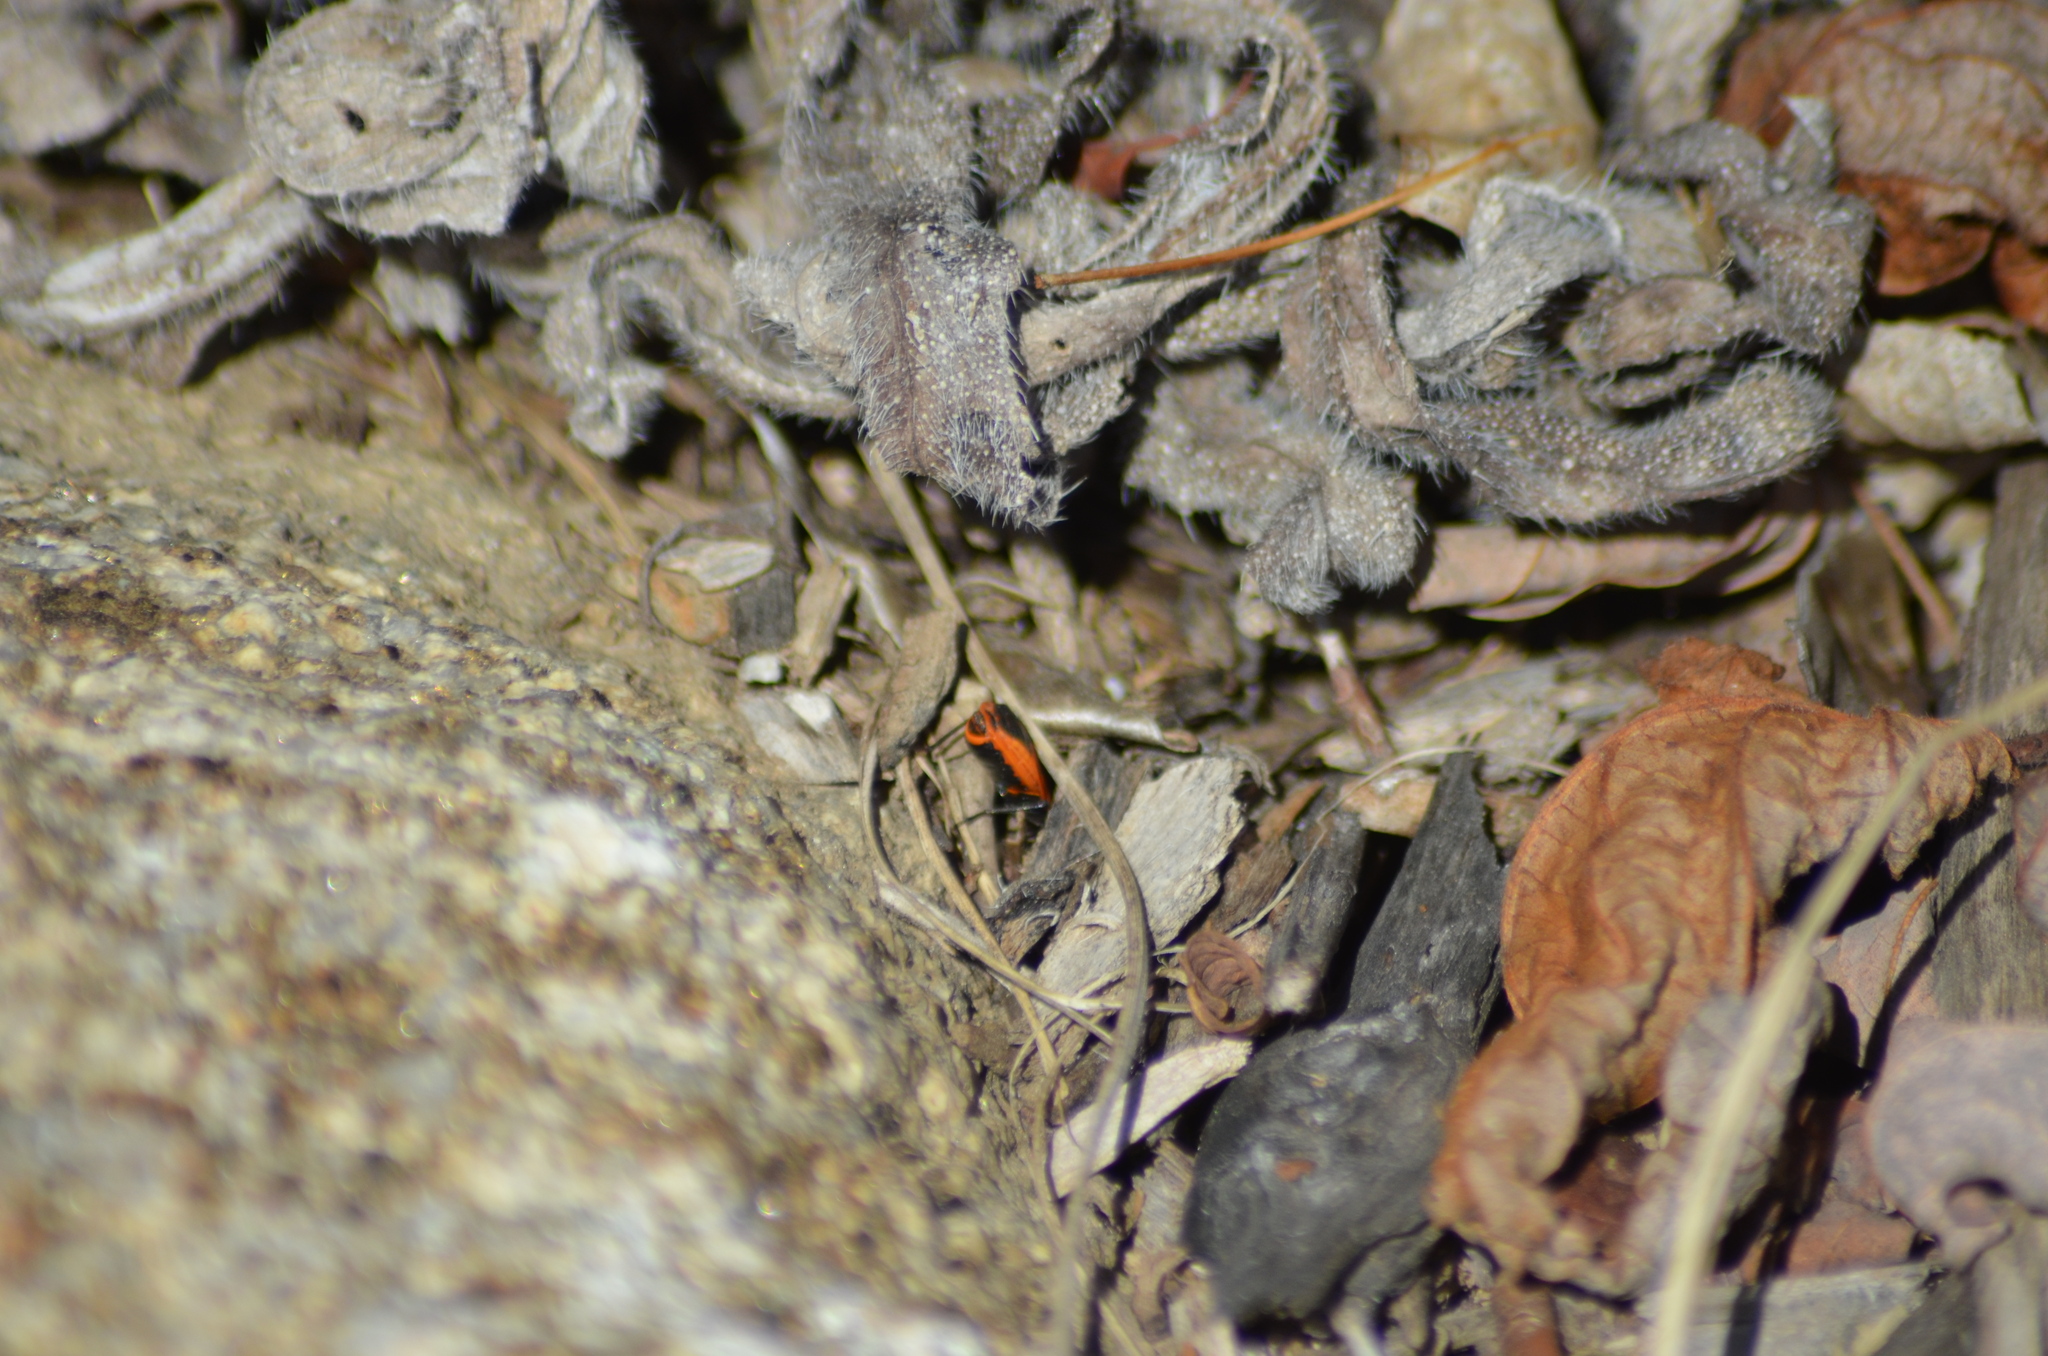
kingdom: Animalia
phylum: Arthropoda
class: Insecta
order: Hemiptera
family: Pyrrhocoridae
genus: Pyrrhocoris
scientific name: Pyrrhocoris apterus
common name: Firebug
